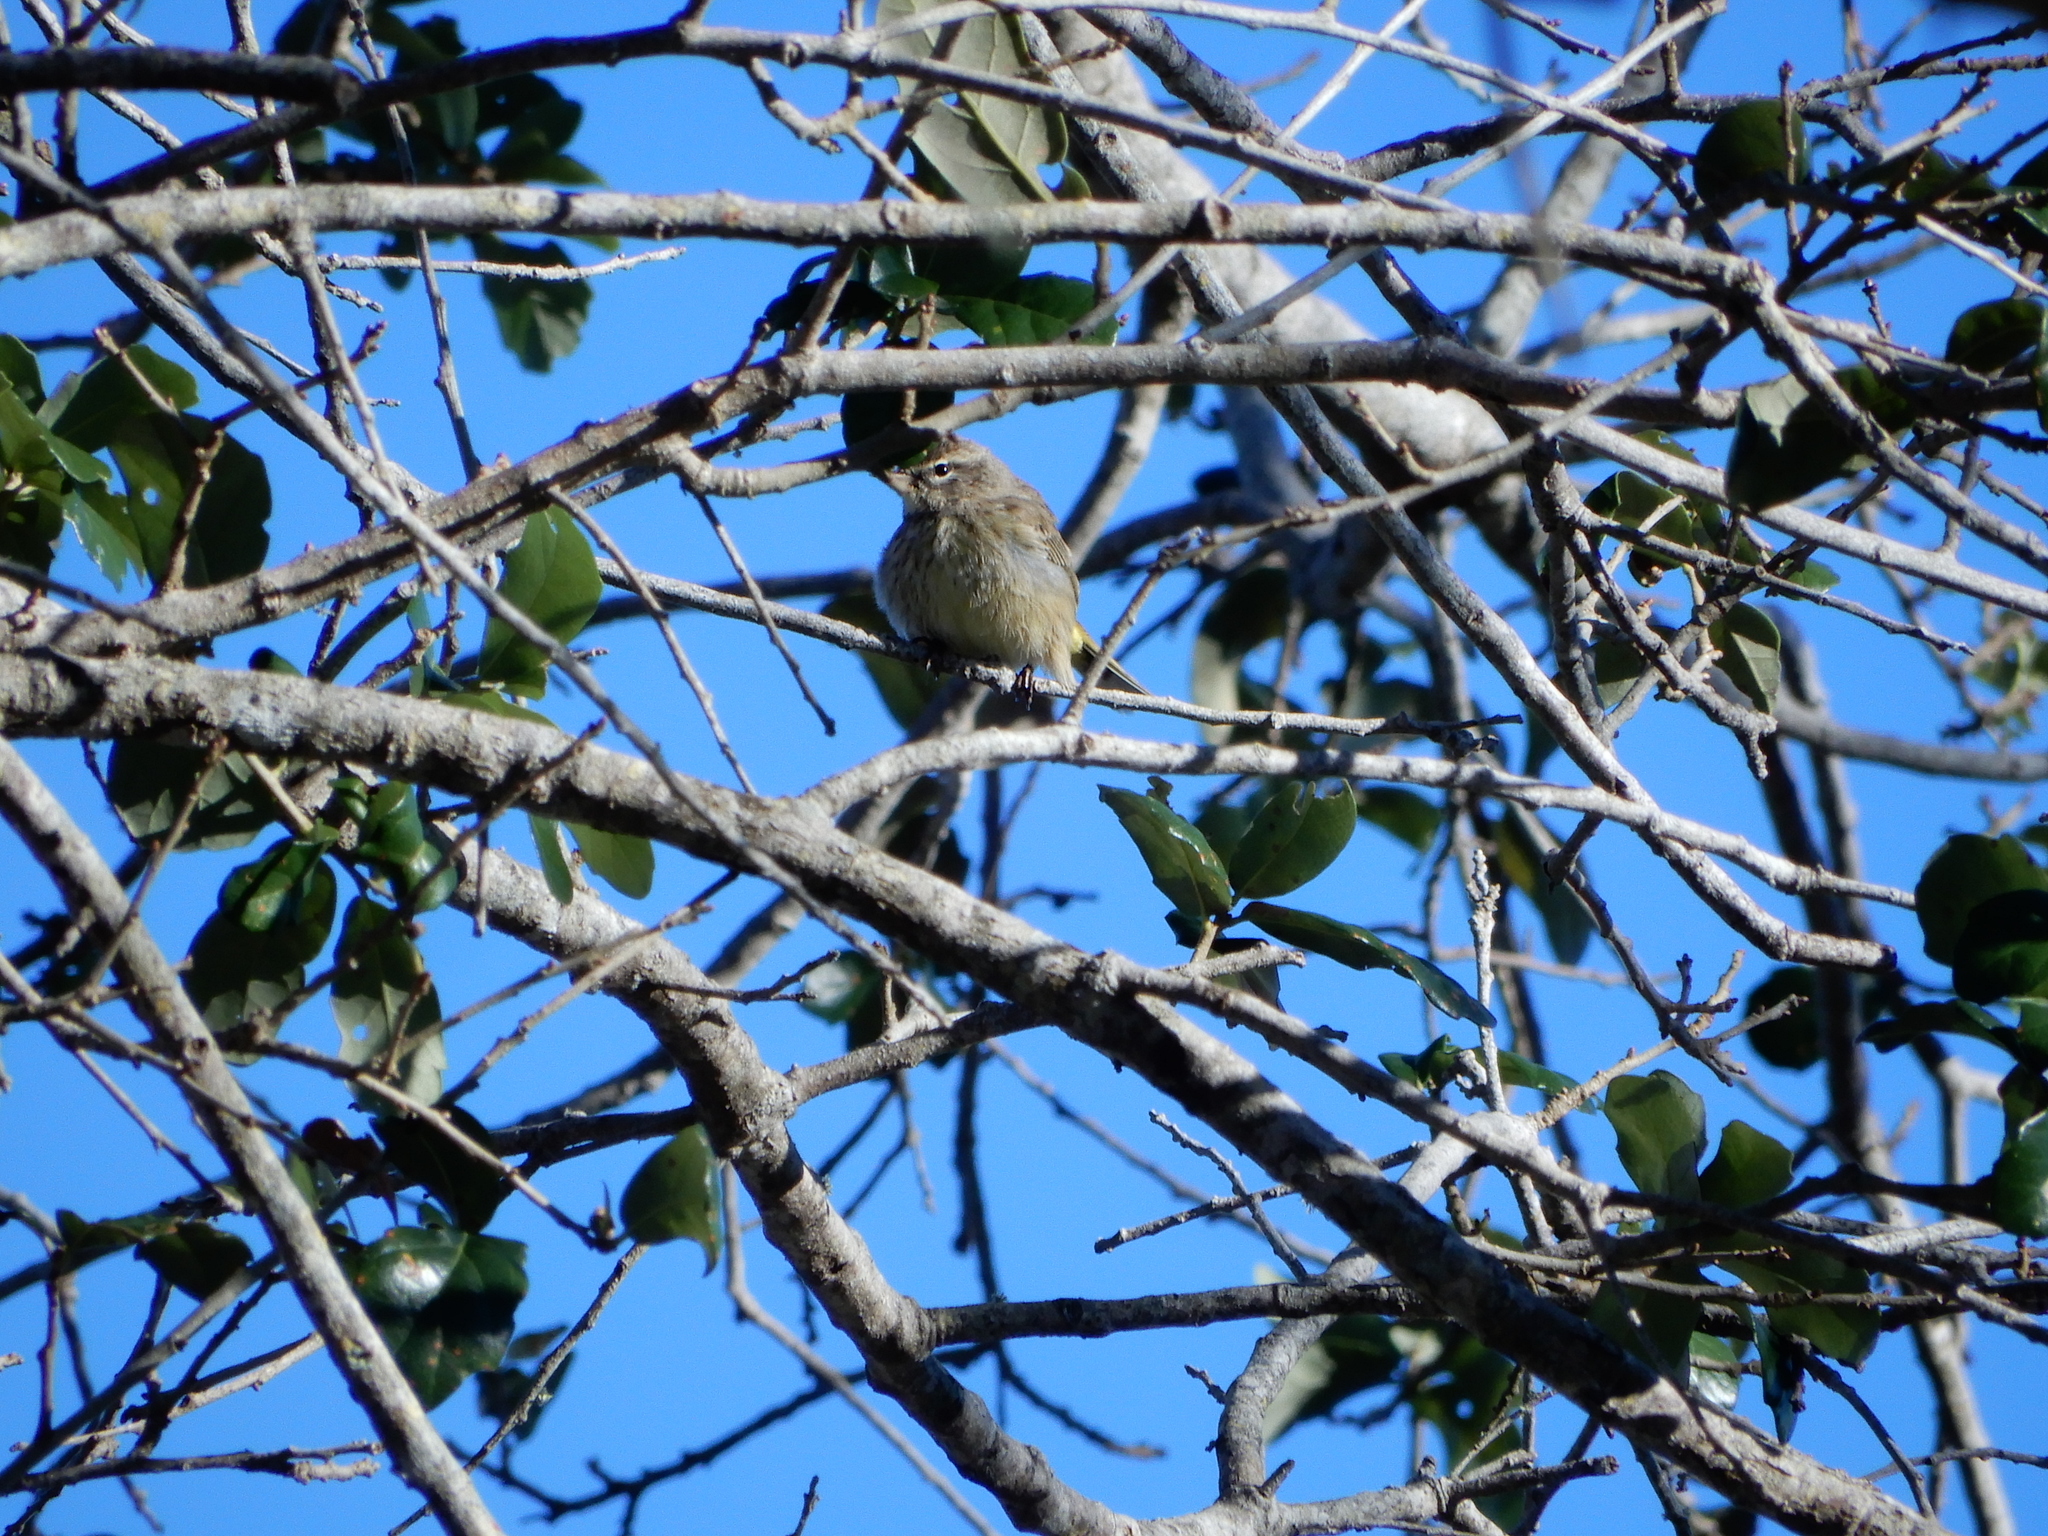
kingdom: Animalia
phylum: Chordata
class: Aves
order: Passeriformes
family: Parulidae
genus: Setophaga
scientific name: Setophaga palmarum
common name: Palm warbler
